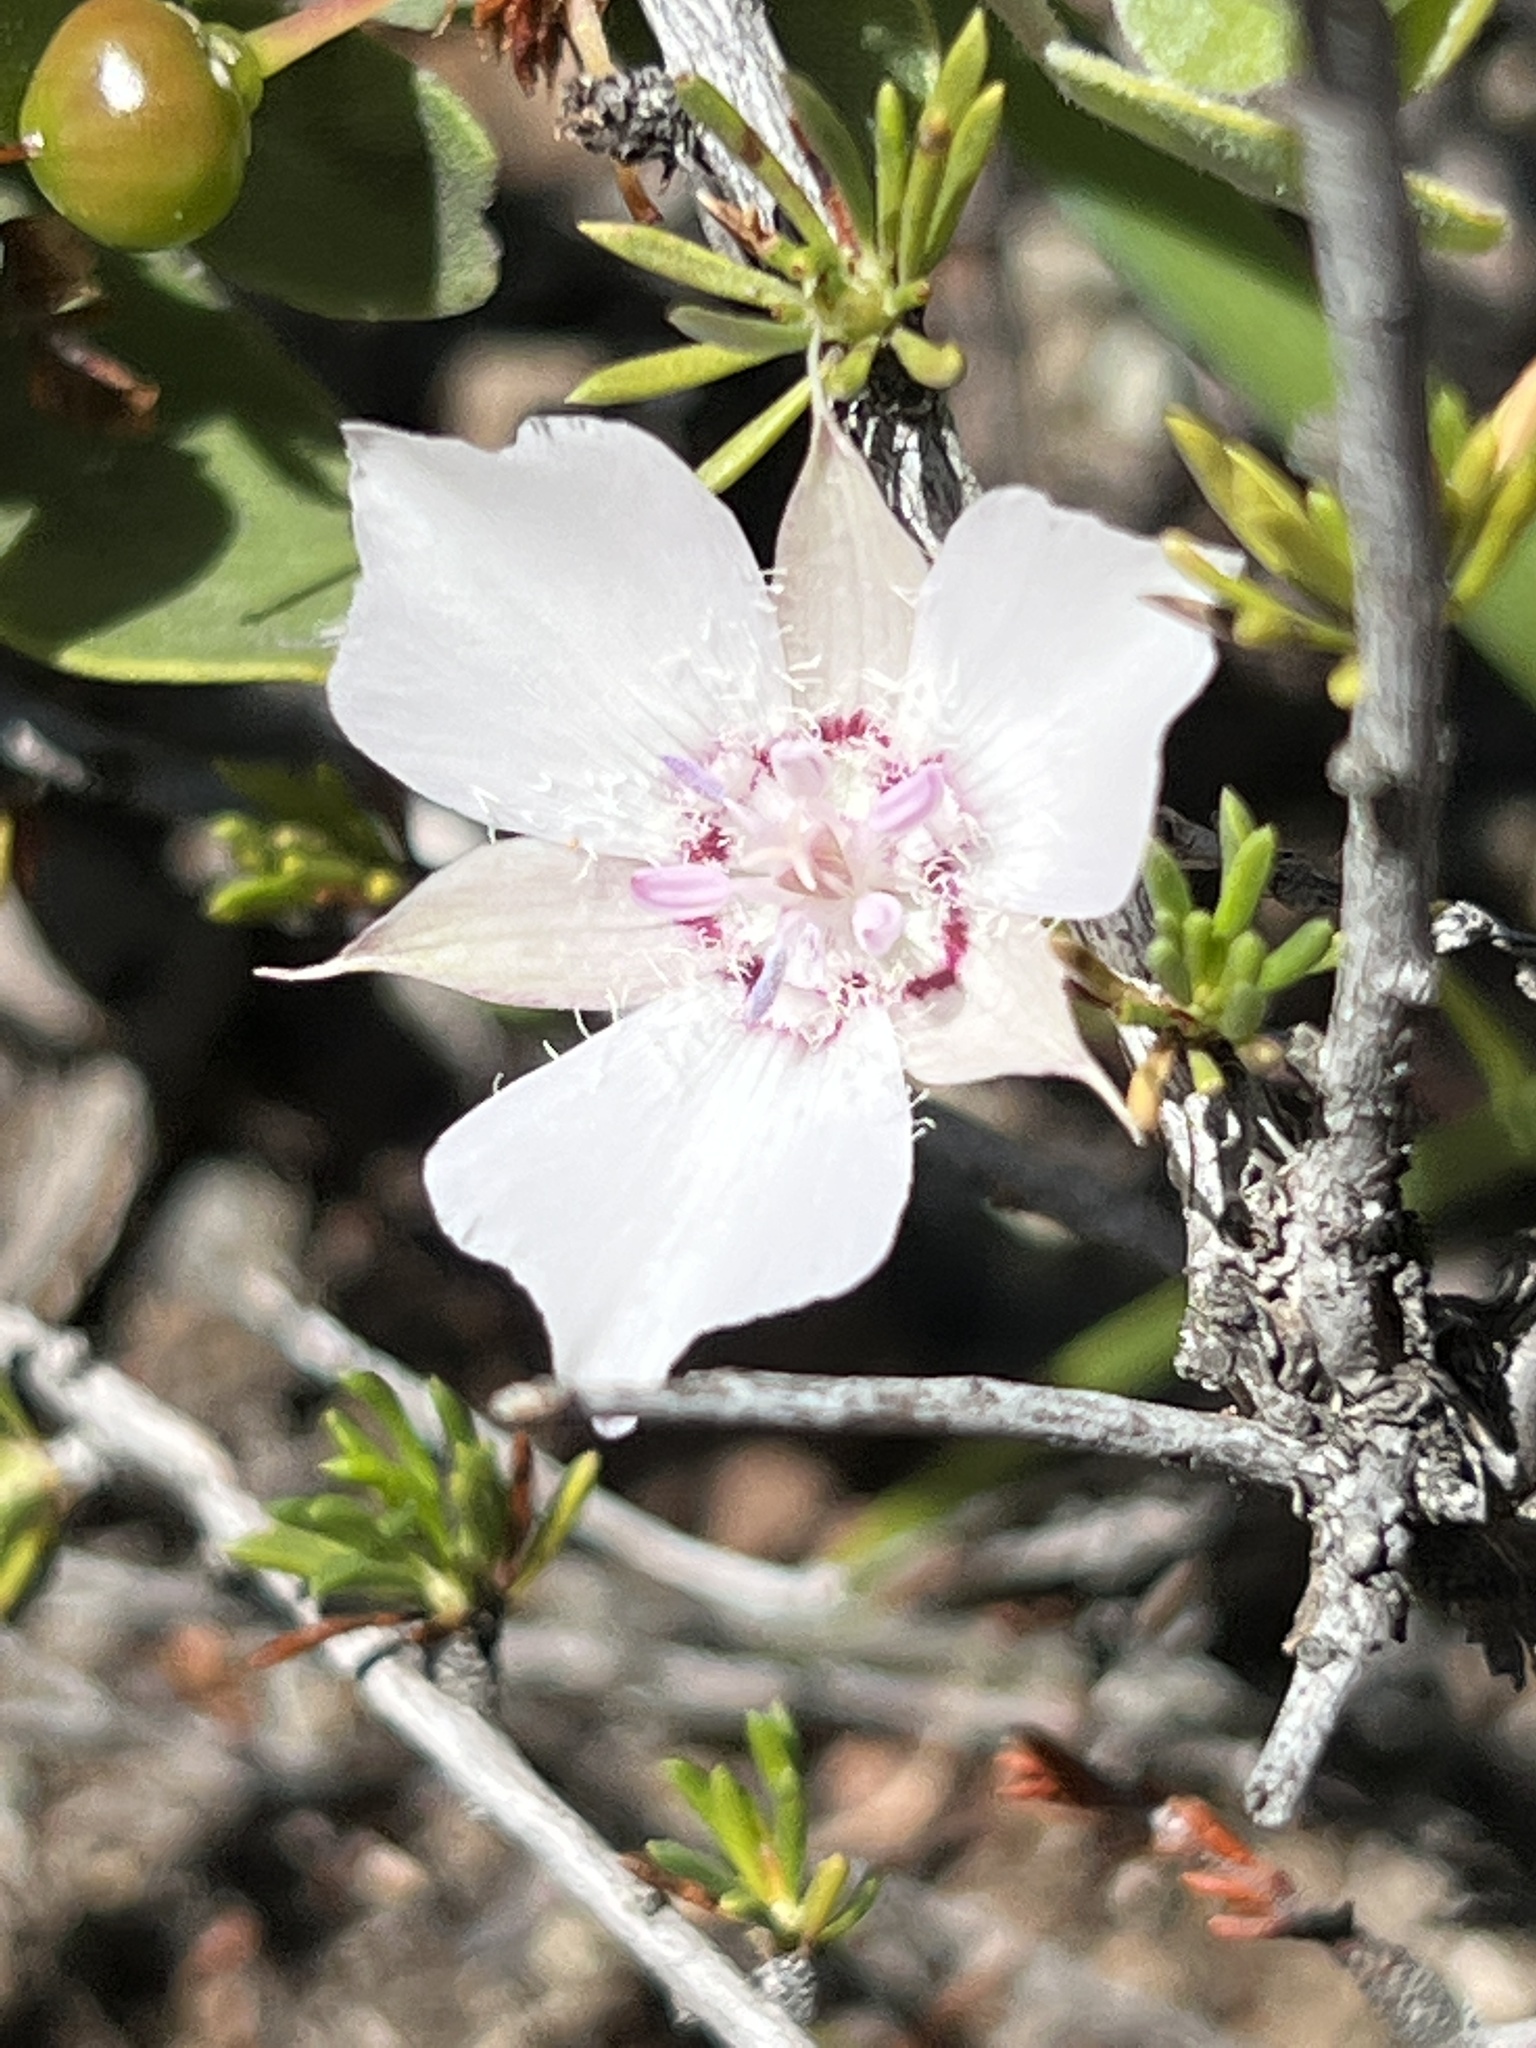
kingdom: Plantae
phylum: Tracheophyta
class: Liliopsida
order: Liliales
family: Liliaceae
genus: Calochortus
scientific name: Calochortus umbellatus
